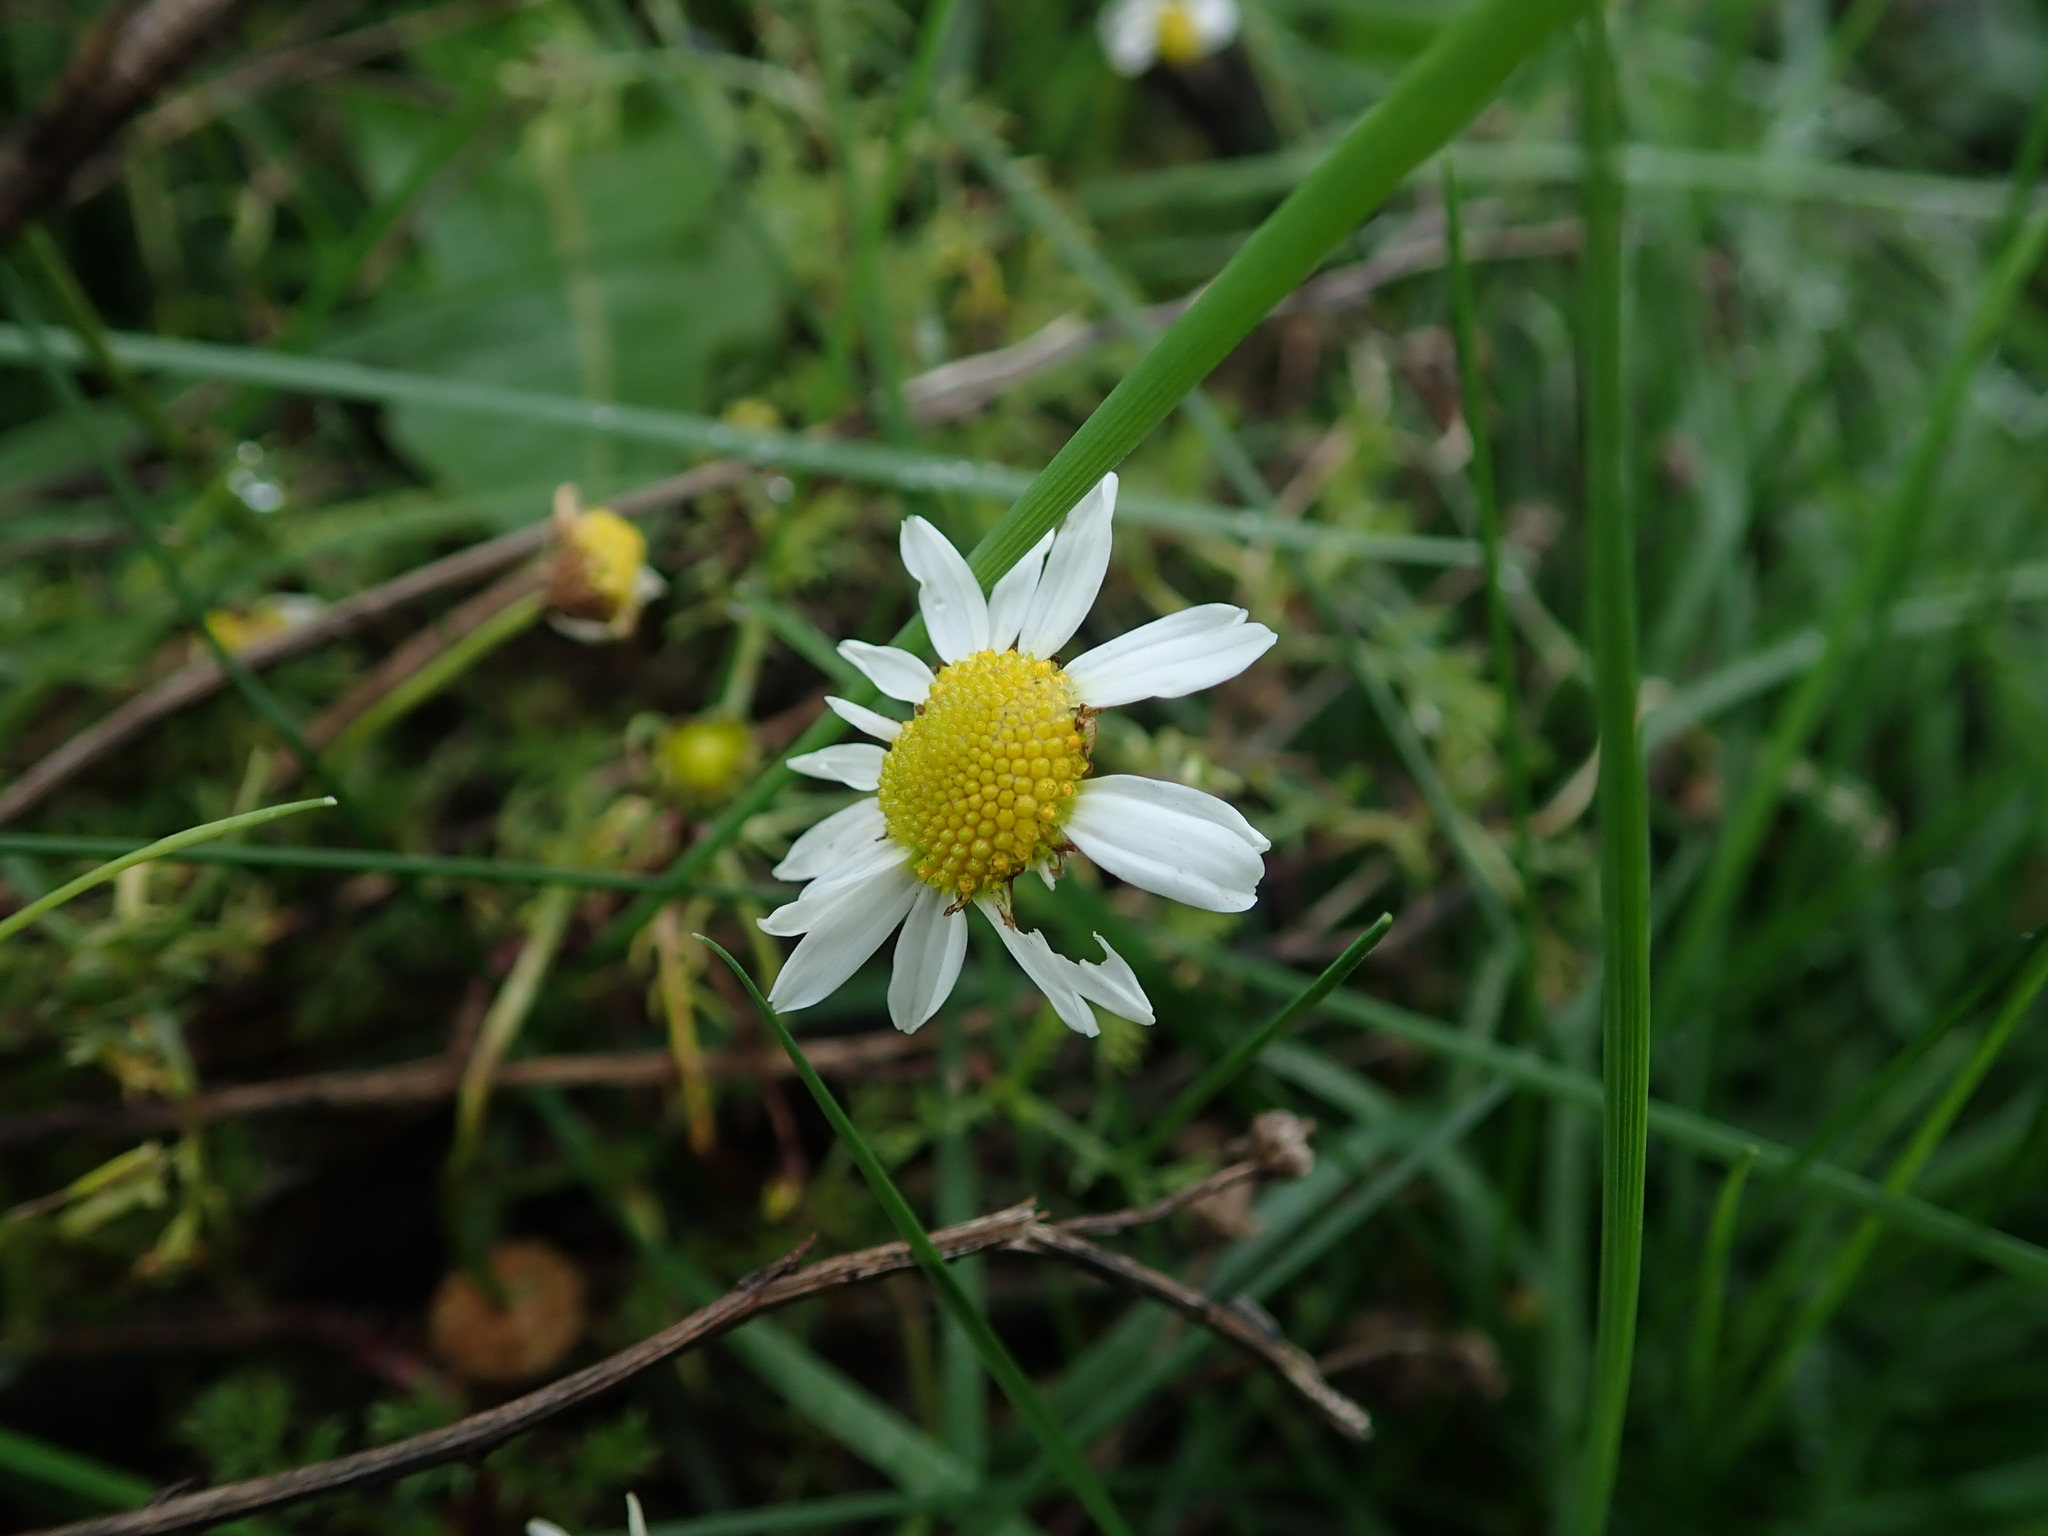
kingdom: Plantae
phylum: Tracheophyta
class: Magnoliopsida
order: Asterales
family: Asteraceae
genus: Tripleurospermum
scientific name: Tripleurospermum inodorum
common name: Scentless mayweed
